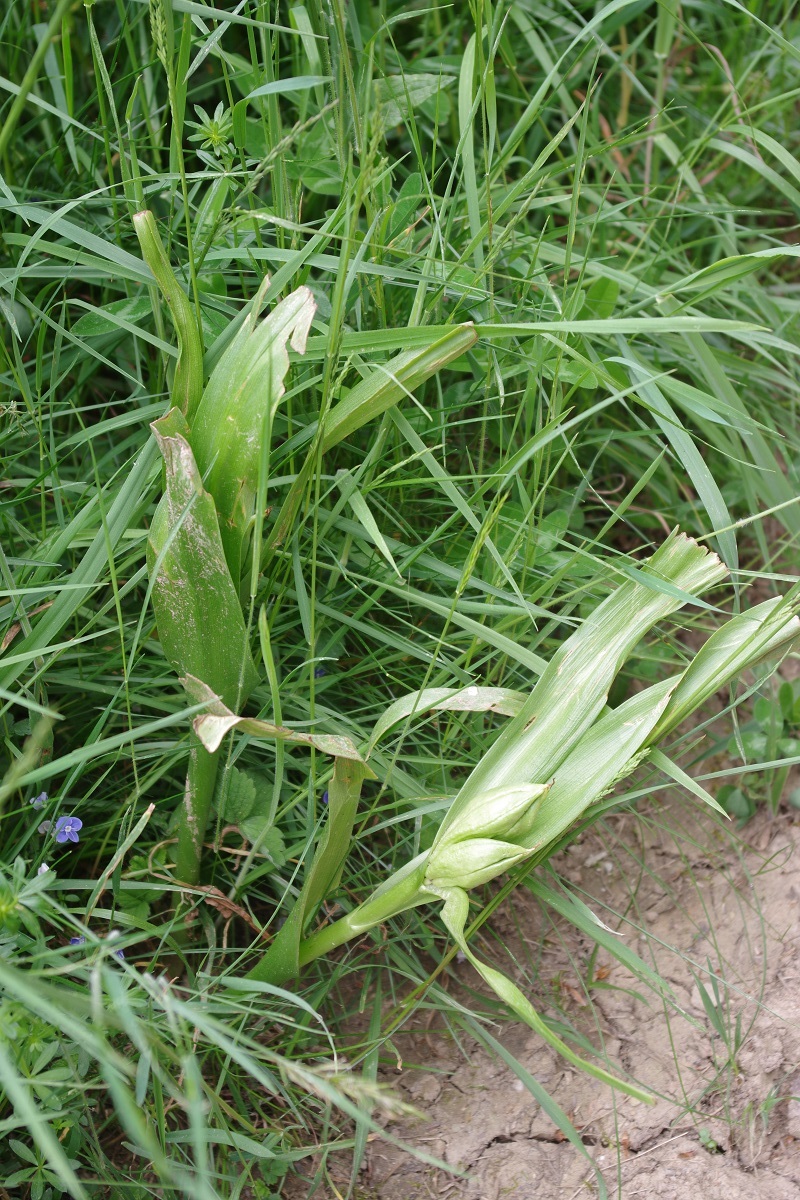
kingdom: Plantae
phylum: Tracheophyta
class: Liliopsida
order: Liliales
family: Colchicaceae
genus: Colchicum
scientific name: Colchicum autumnale
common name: Autumn crocus
